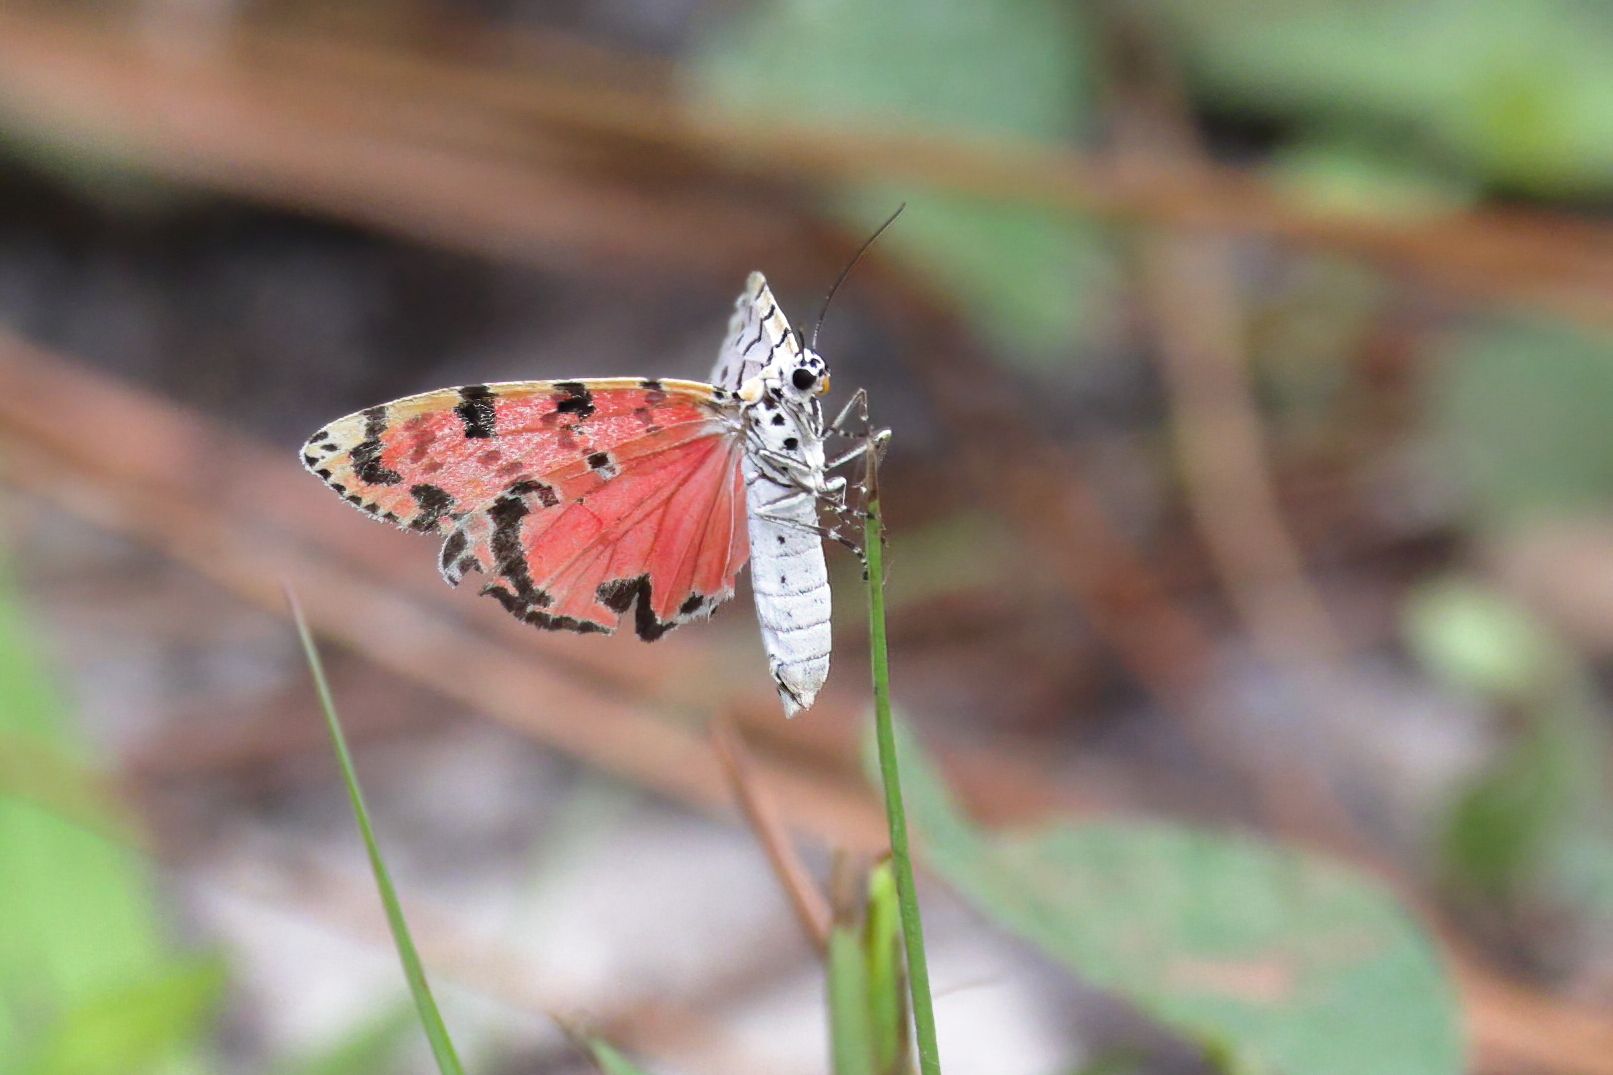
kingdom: Animalia
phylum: Arthropoda
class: Insecta
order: Lepidoptera
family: Erebidae
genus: Utetheisa
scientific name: Utetheisa ornatrix
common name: Beautiful utetheisa
